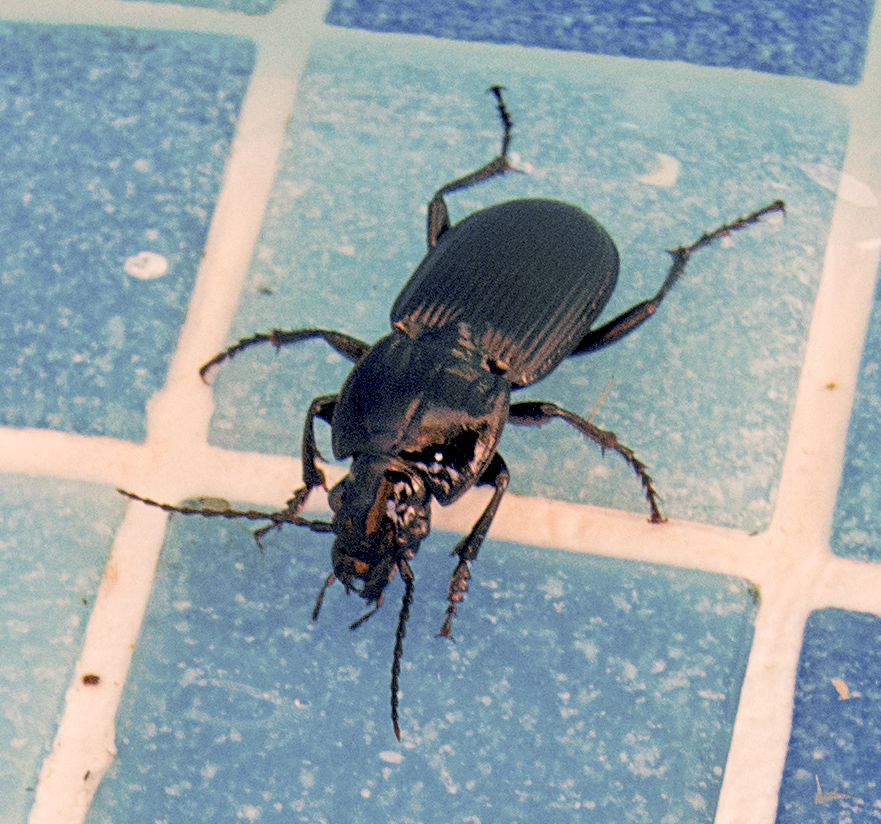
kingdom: Animalia
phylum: Arthropoda
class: Insecta
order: Coleoptera
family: Carabidae
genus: Pterostichus
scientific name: Pterostichus melas
